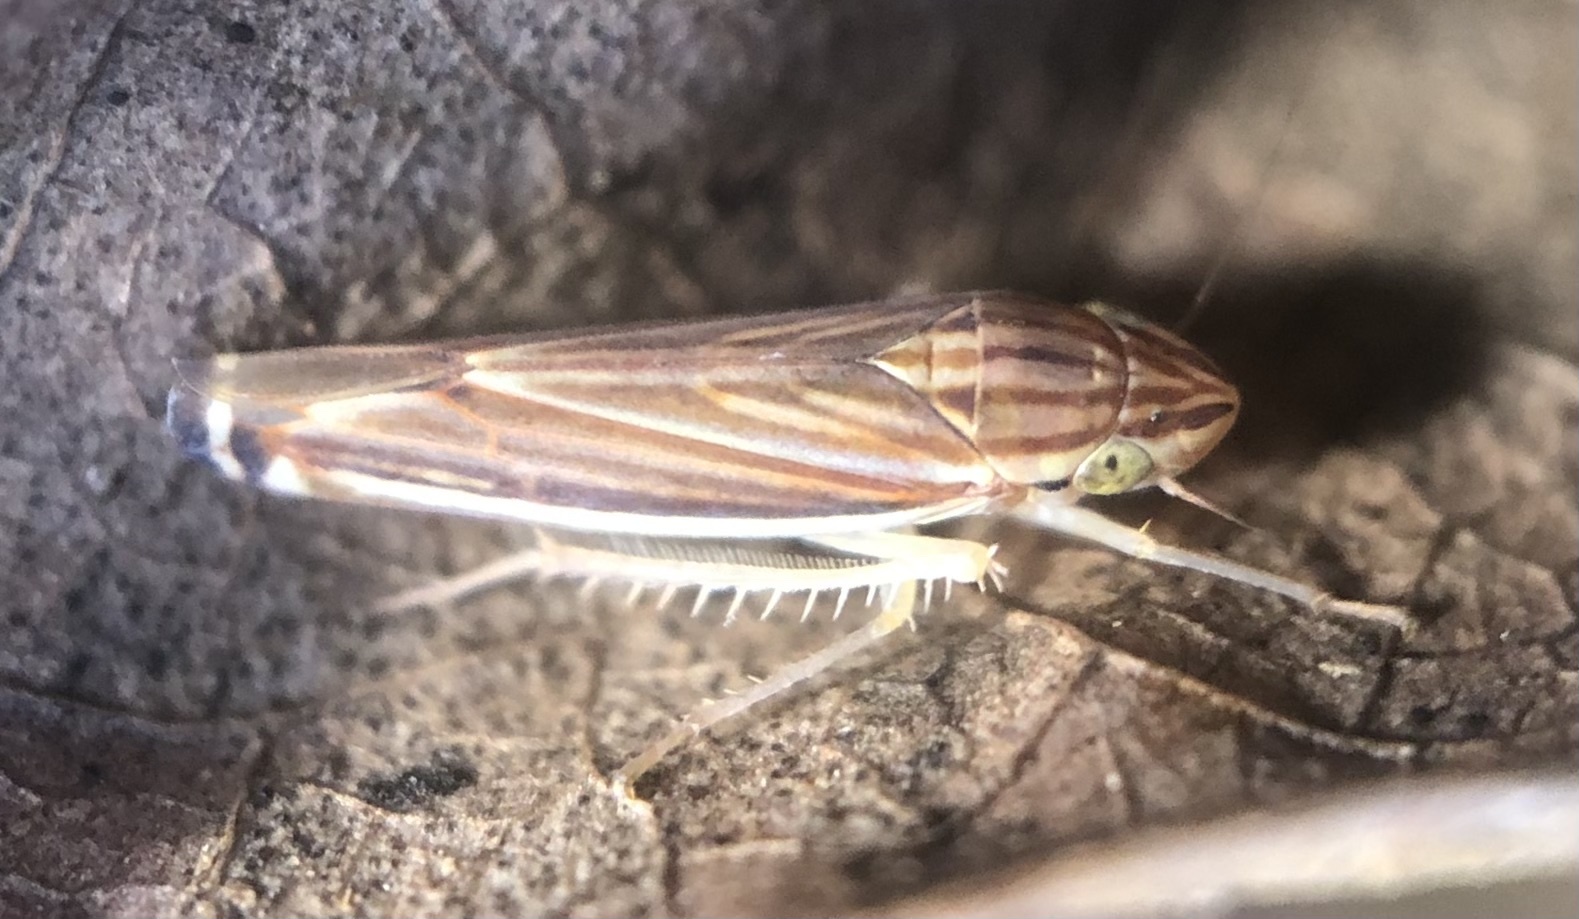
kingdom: Animalia
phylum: Arthropoda
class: Insecta
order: Hemiptera
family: Cicadellidae
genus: Sibovia
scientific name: Sibovia occatoria
